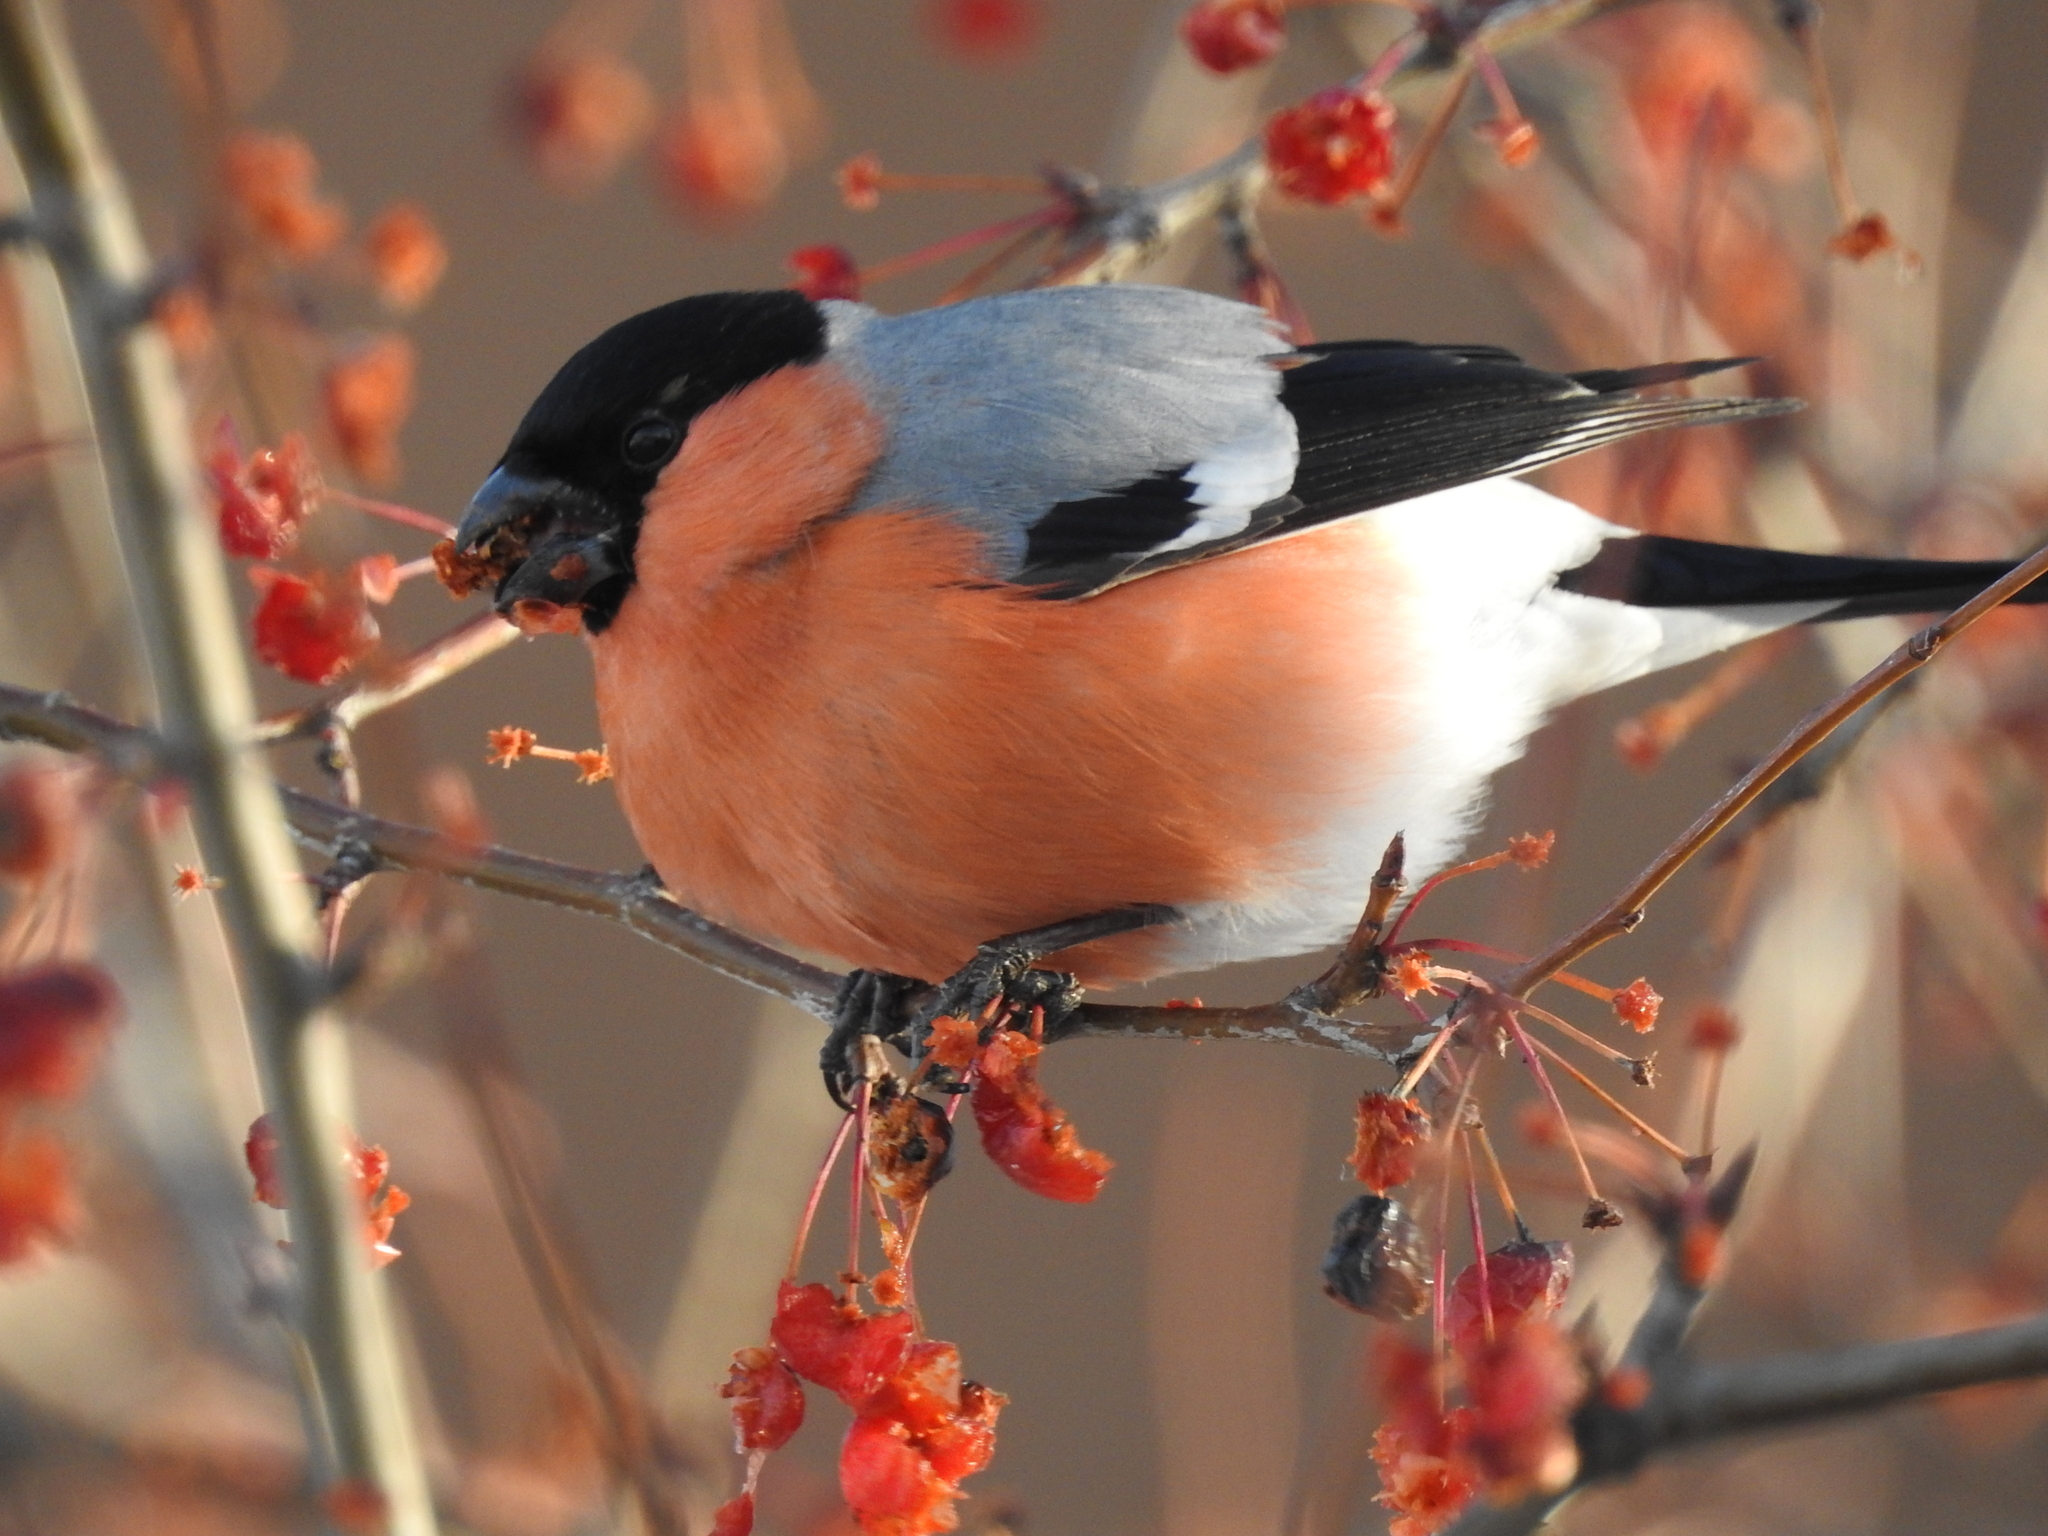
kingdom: Animalia
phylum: Chordata
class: Aves
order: Passeriformes
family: Fringillidae
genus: Pyrrhula
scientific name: Pyrrhula pyrrhula
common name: Eurasian bullfinch
